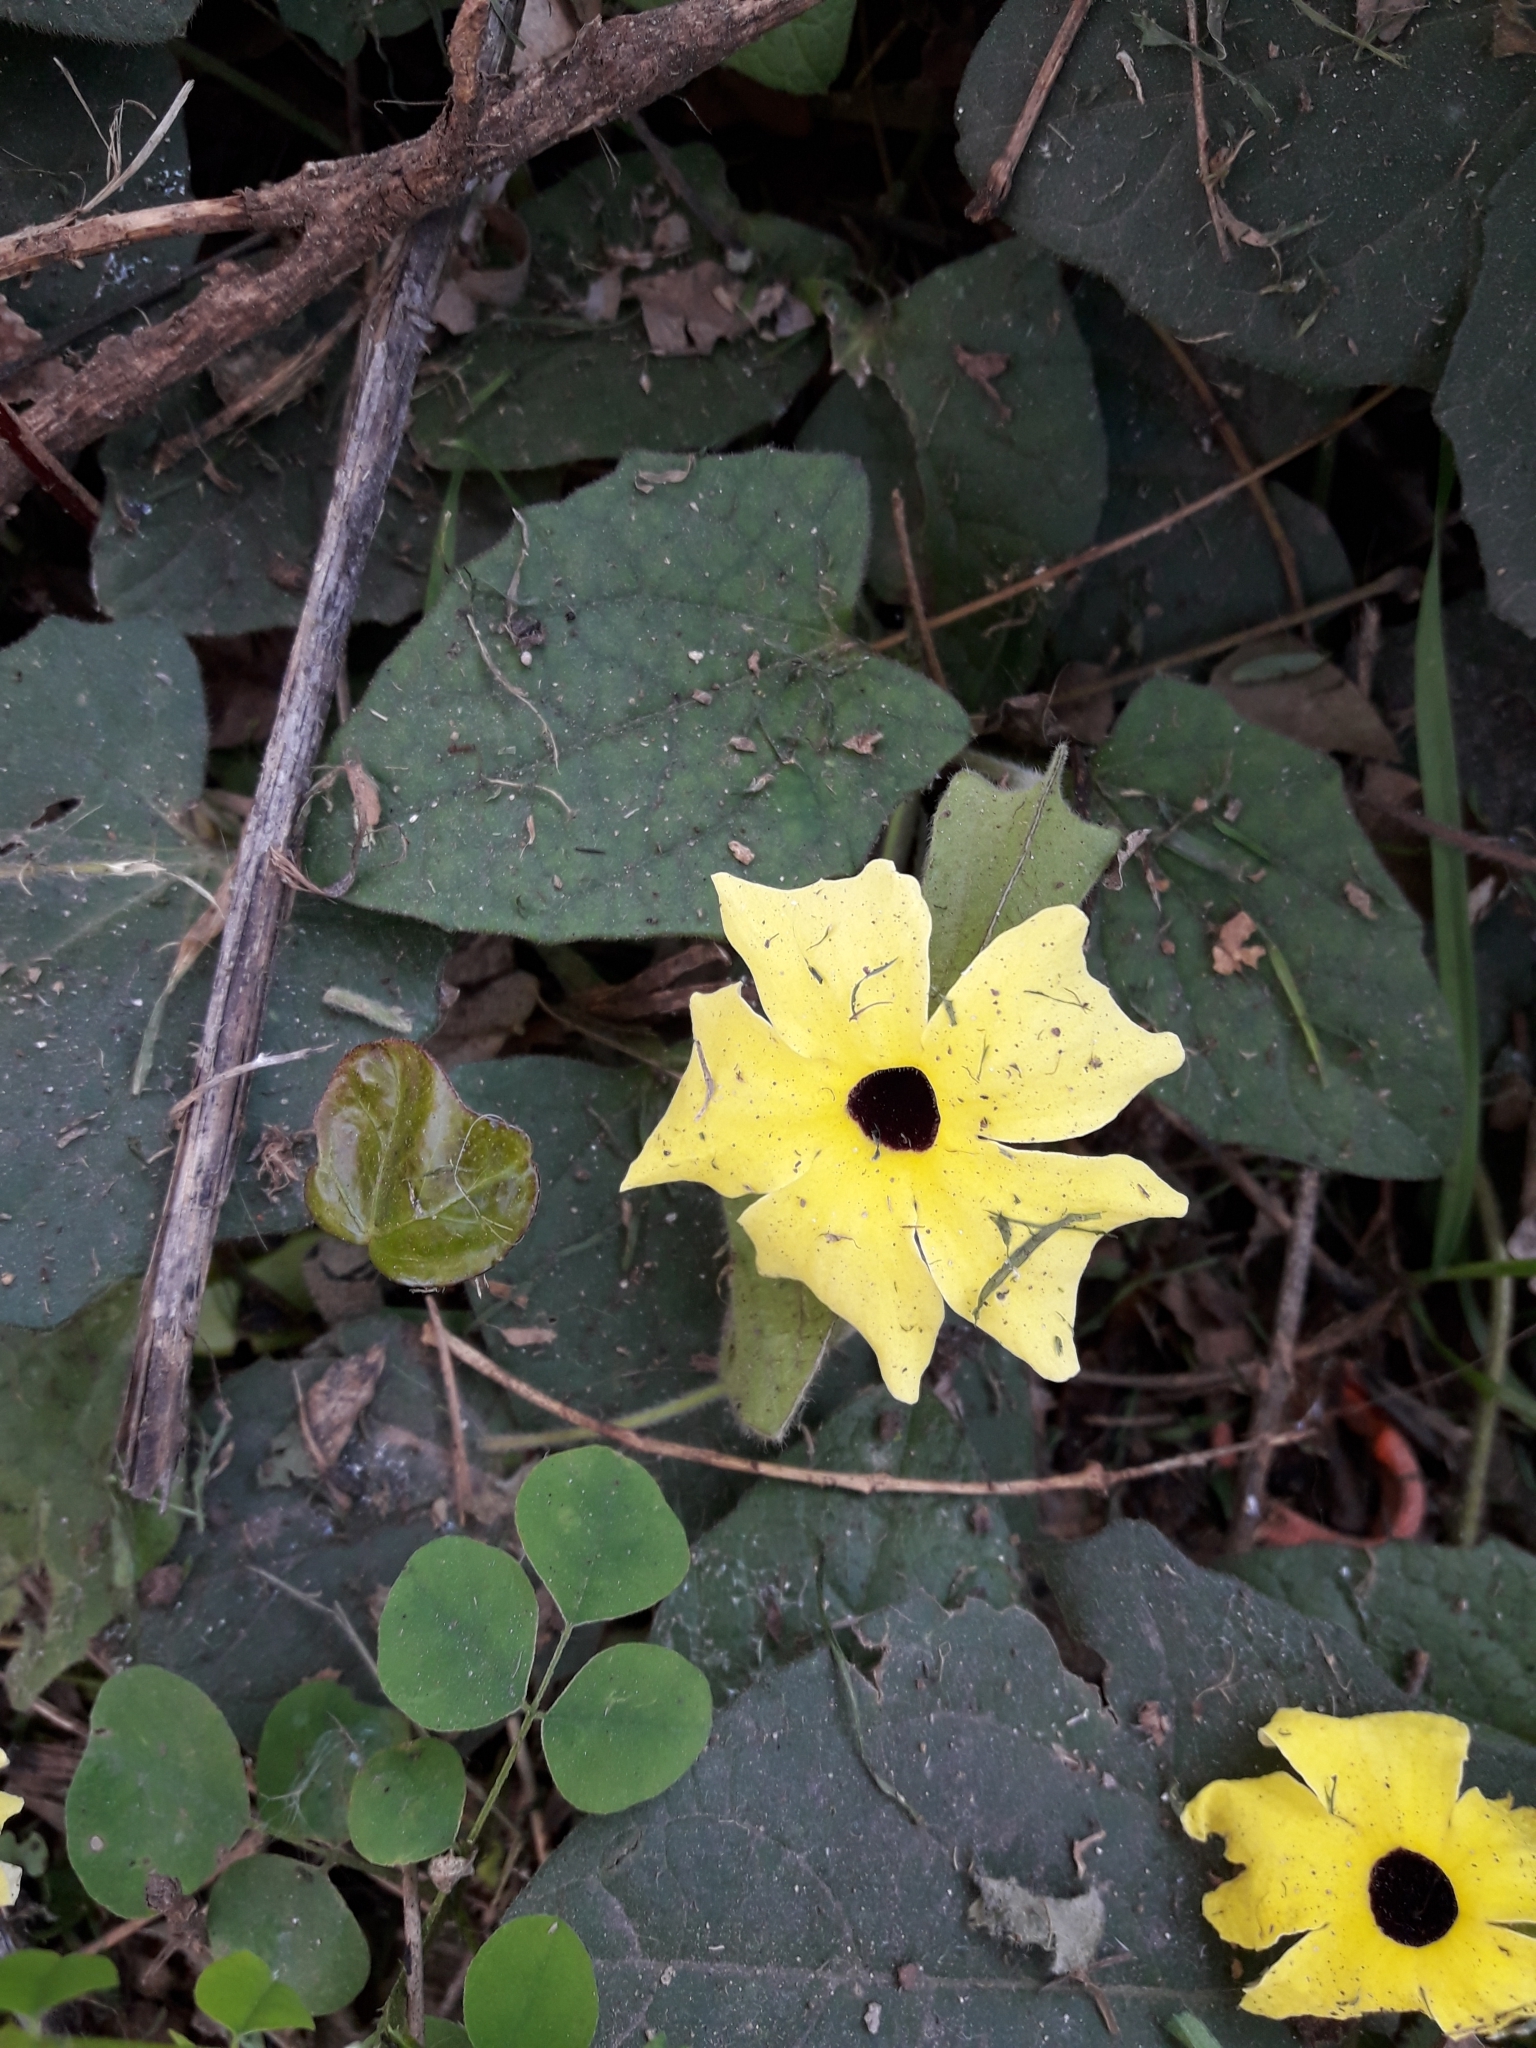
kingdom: Plantae
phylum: Tracheophyta
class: Magnoliopsida
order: Lamiales
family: Acanthaceae
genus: Thunbergia
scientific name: Thunbergia alata
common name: Blackeyed susan vine
